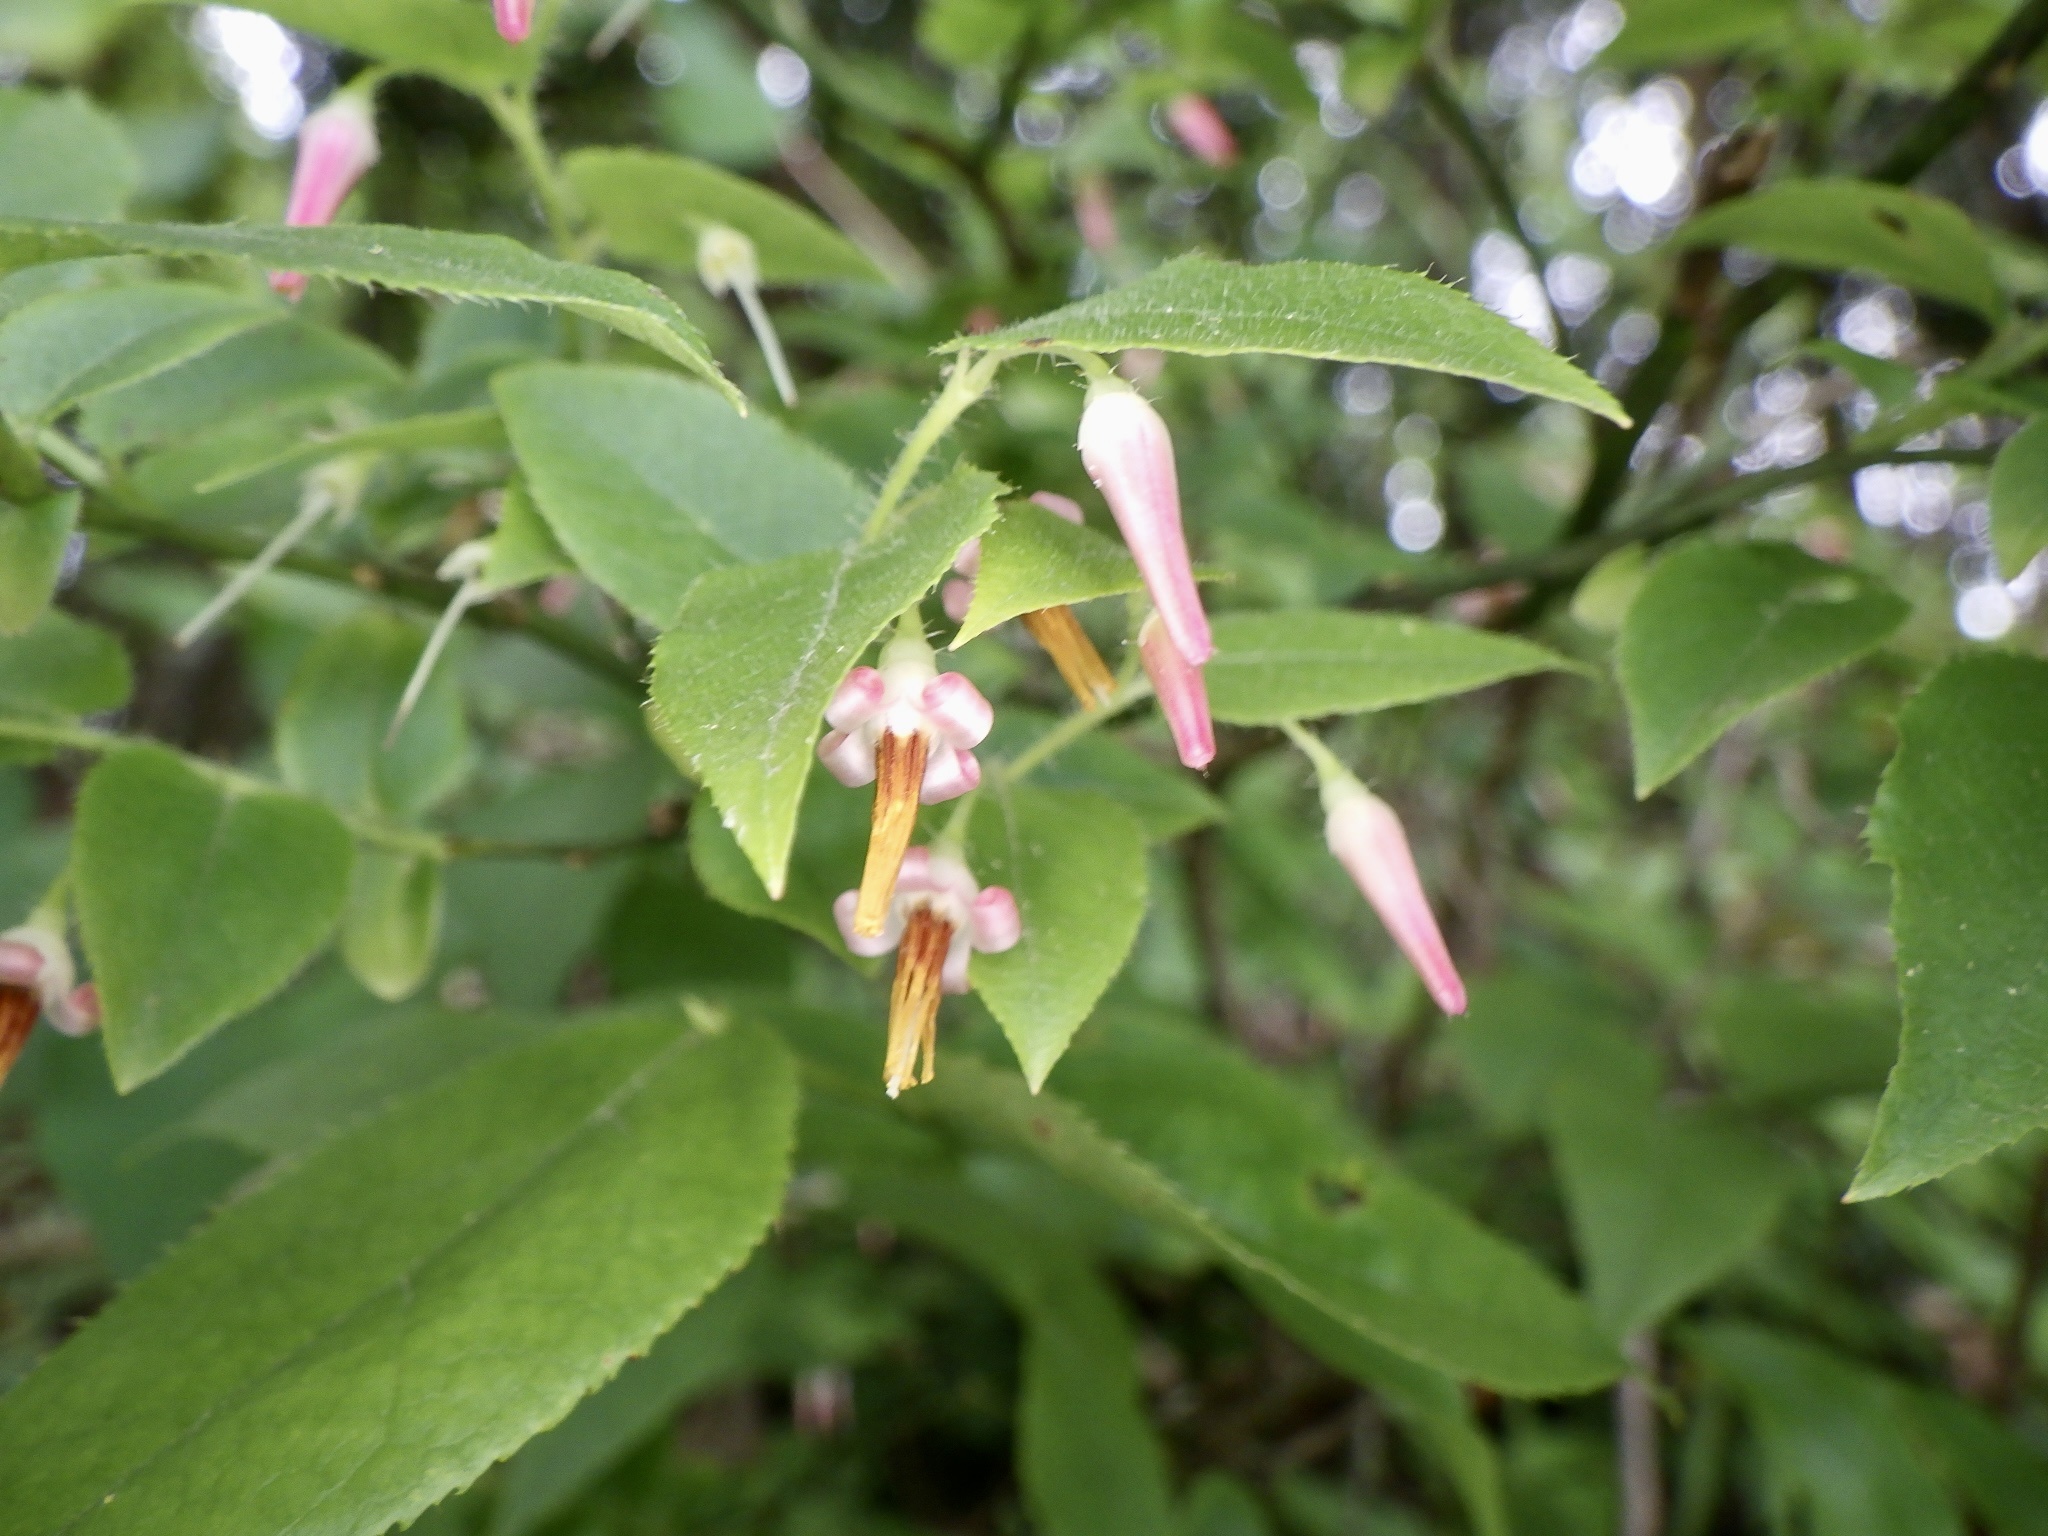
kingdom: Plantae
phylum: Tracheophyta
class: Magnoliopsida
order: Ericales
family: Ericaceae
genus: Vaccinium
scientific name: Vaccinium japonicum
